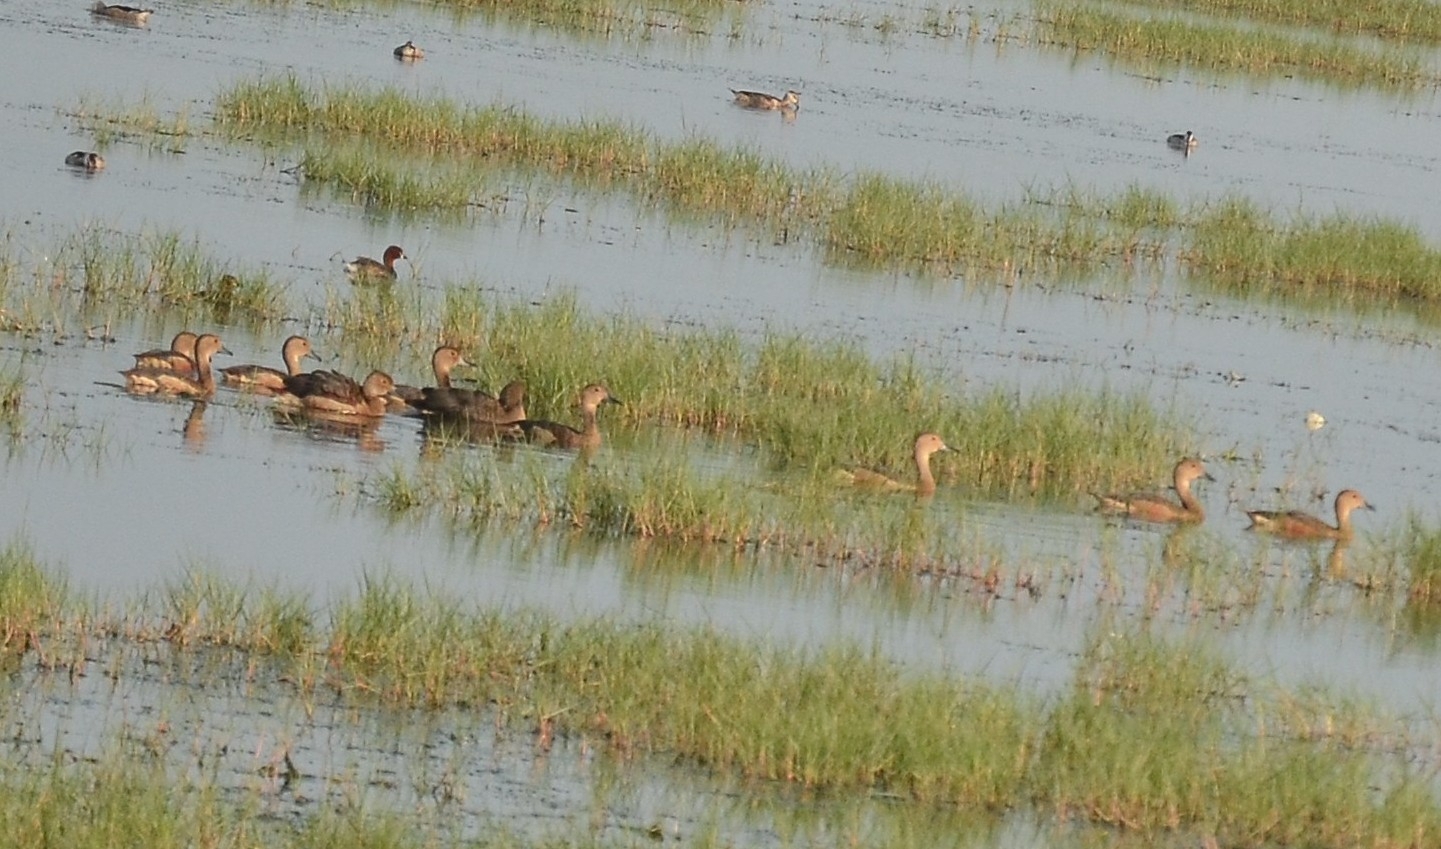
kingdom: Animalia
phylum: Chordata
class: Aves
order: Anseriformes
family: Anatidae
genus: Dendrocygna
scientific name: Dendrocygna javanica
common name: Lesser whistling-duck
